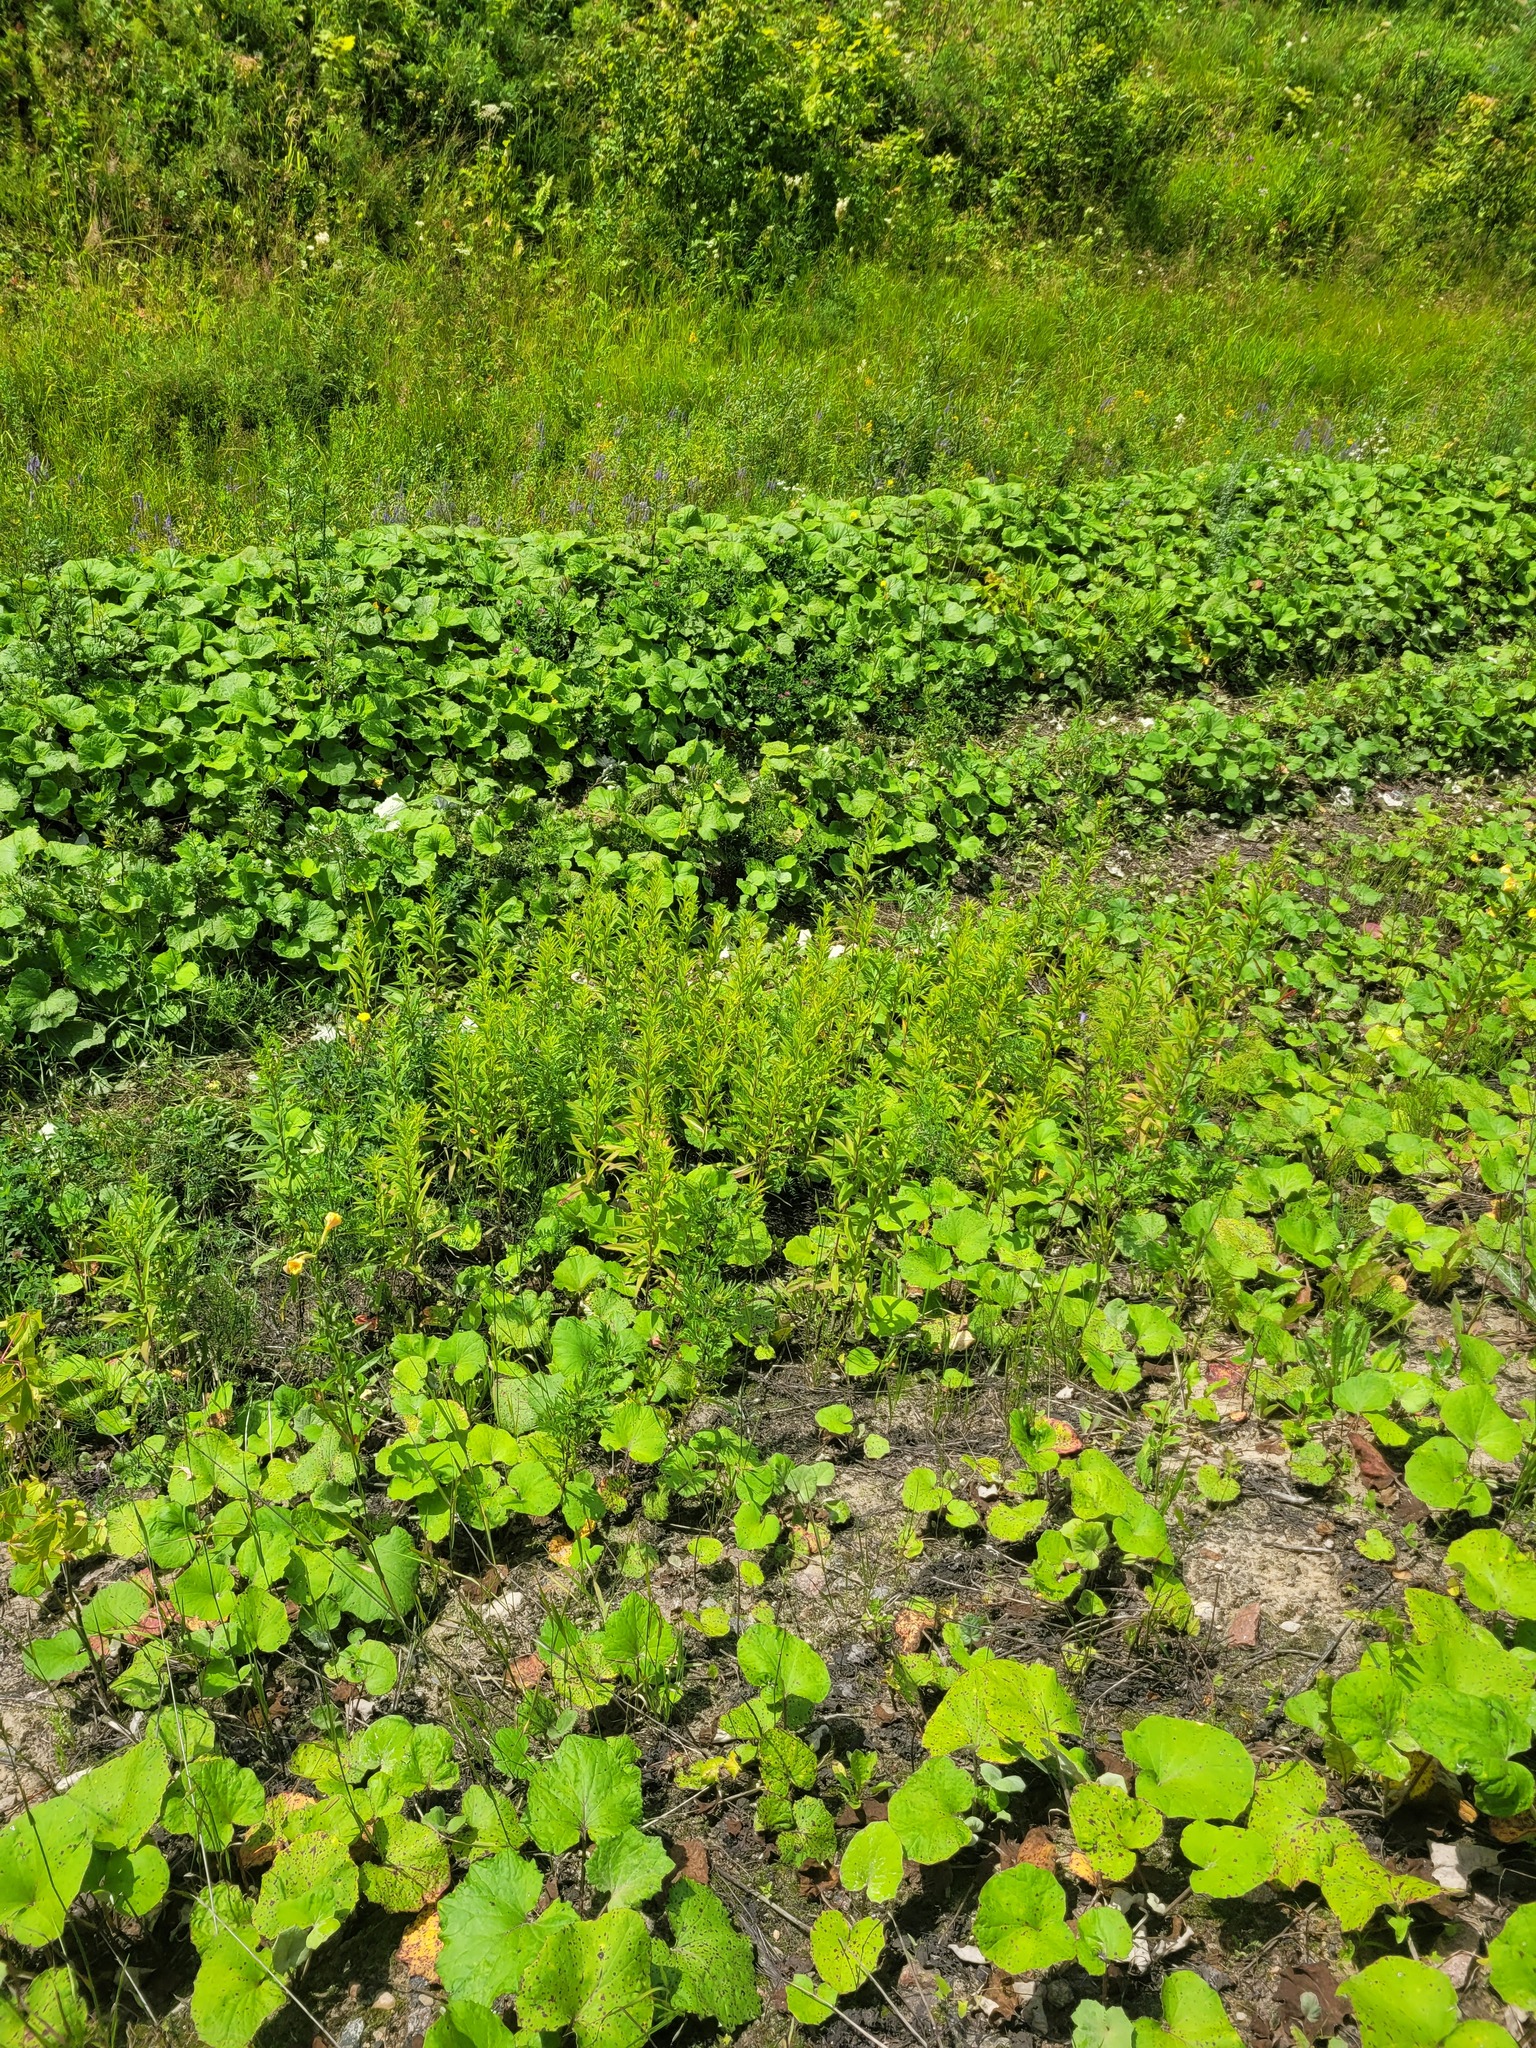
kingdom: Plantae
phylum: Tracheophyta
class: Magnoliopsida
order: Asterales
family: Asteraceae
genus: Solidago
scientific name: Solidago gigantea
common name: Giant goldenrod
